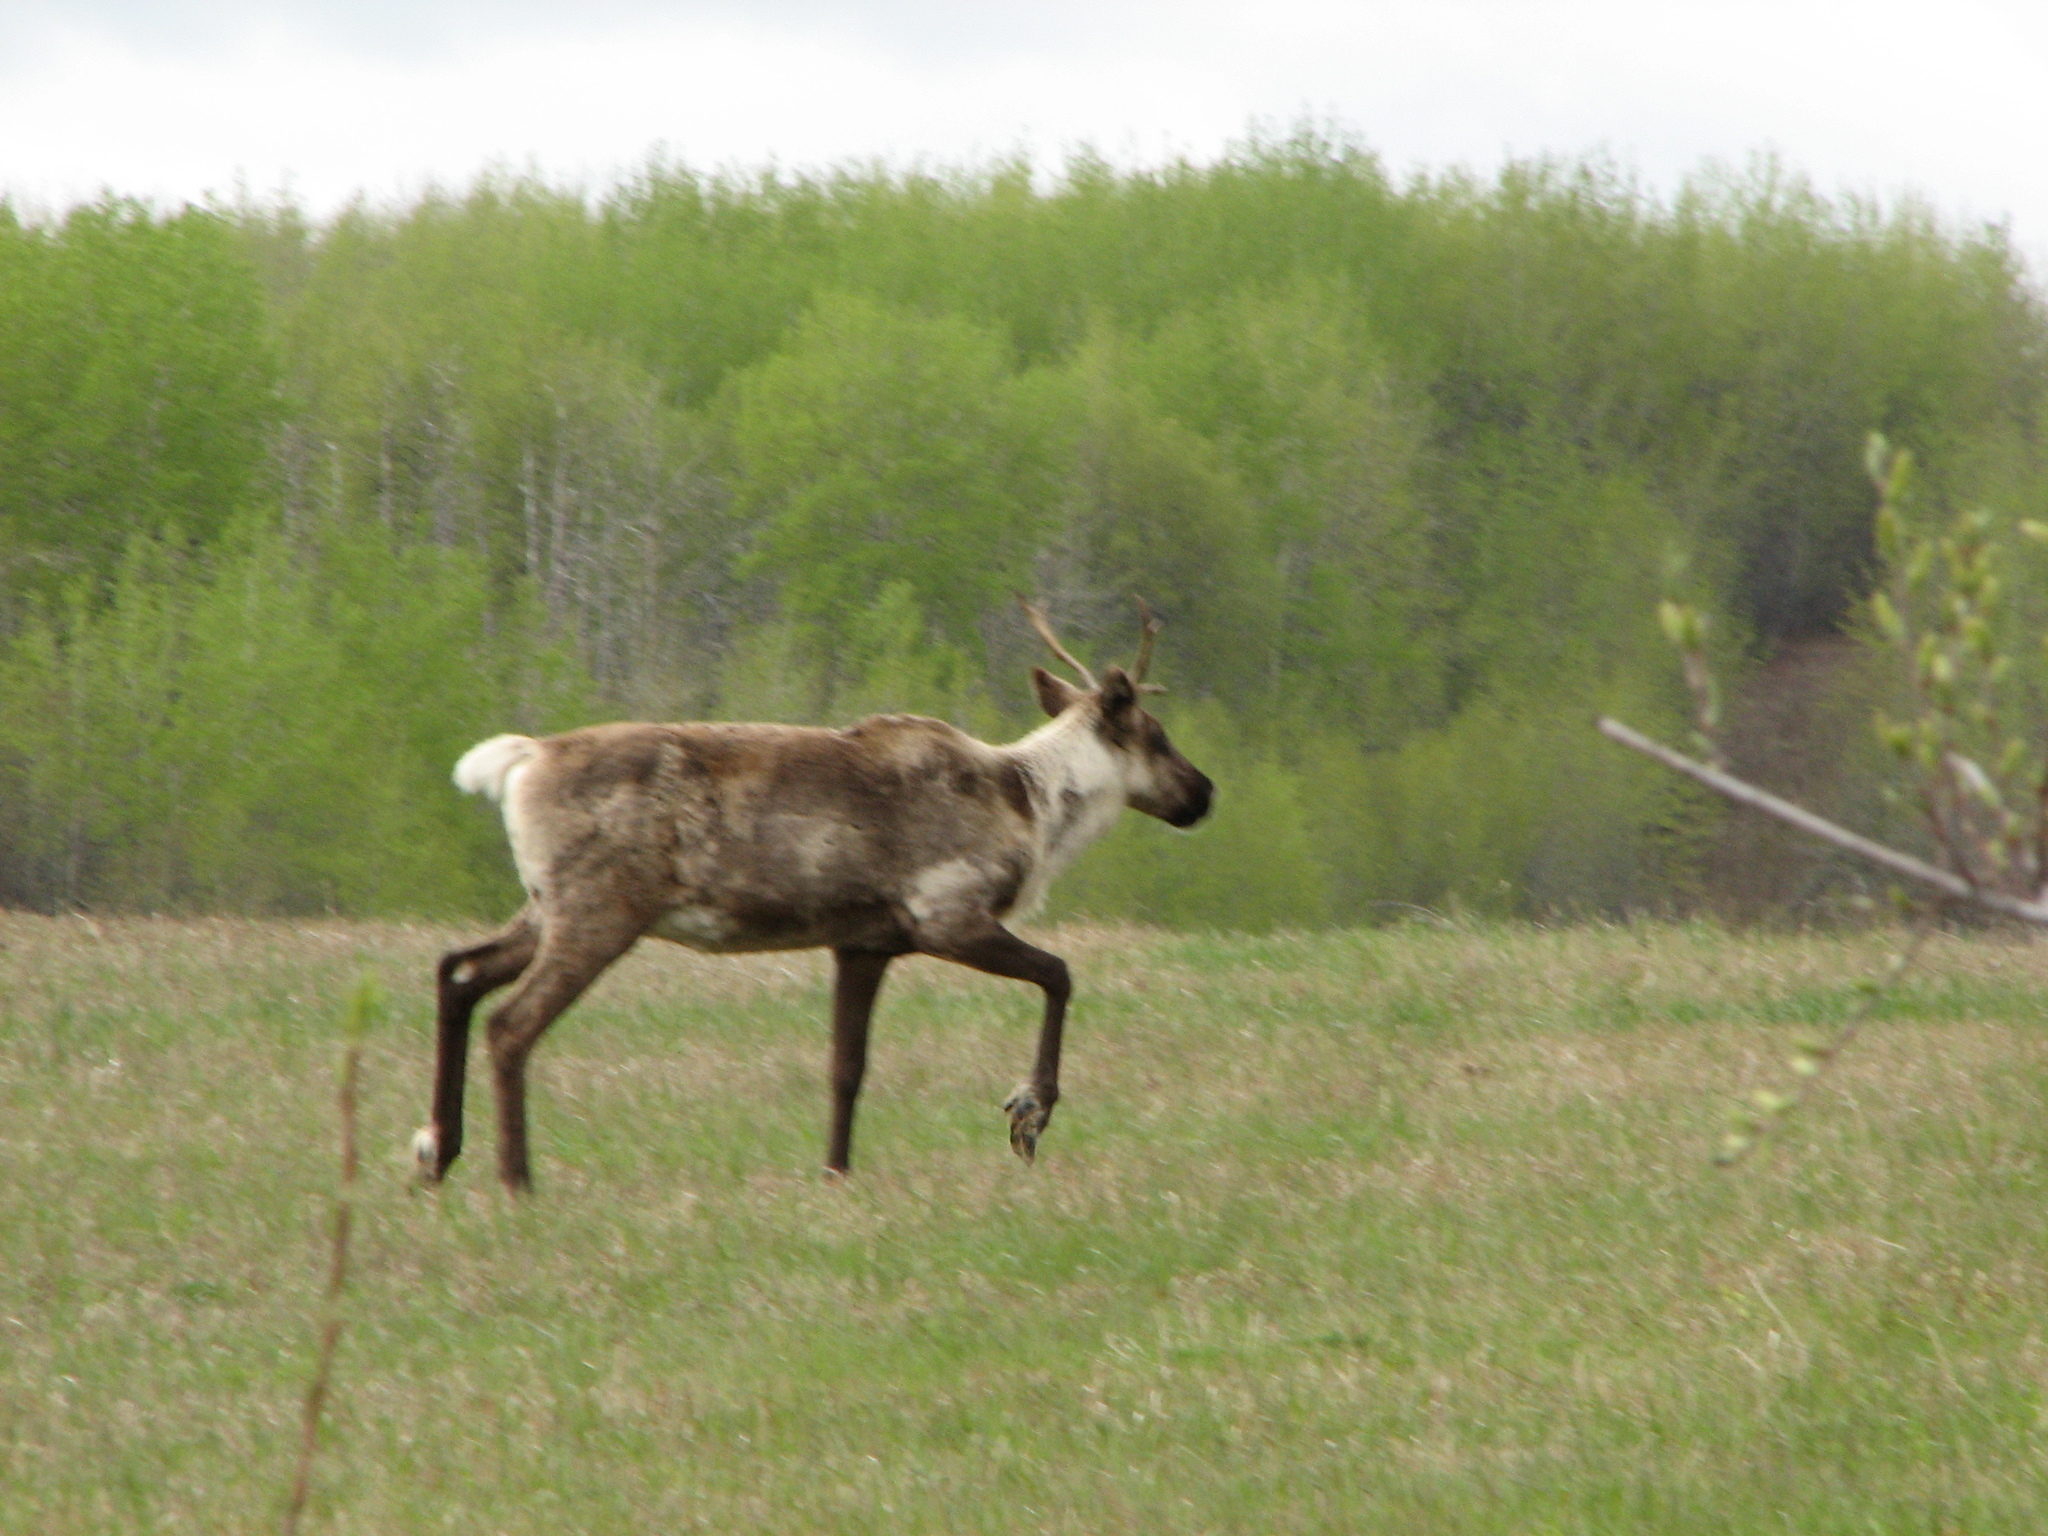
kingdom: Animalia
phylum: Chordata
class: Mammalia
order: Artiodactyla
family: Cervidae
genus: Rangifer
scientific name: Rangifer tarandus
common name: Reindeer
